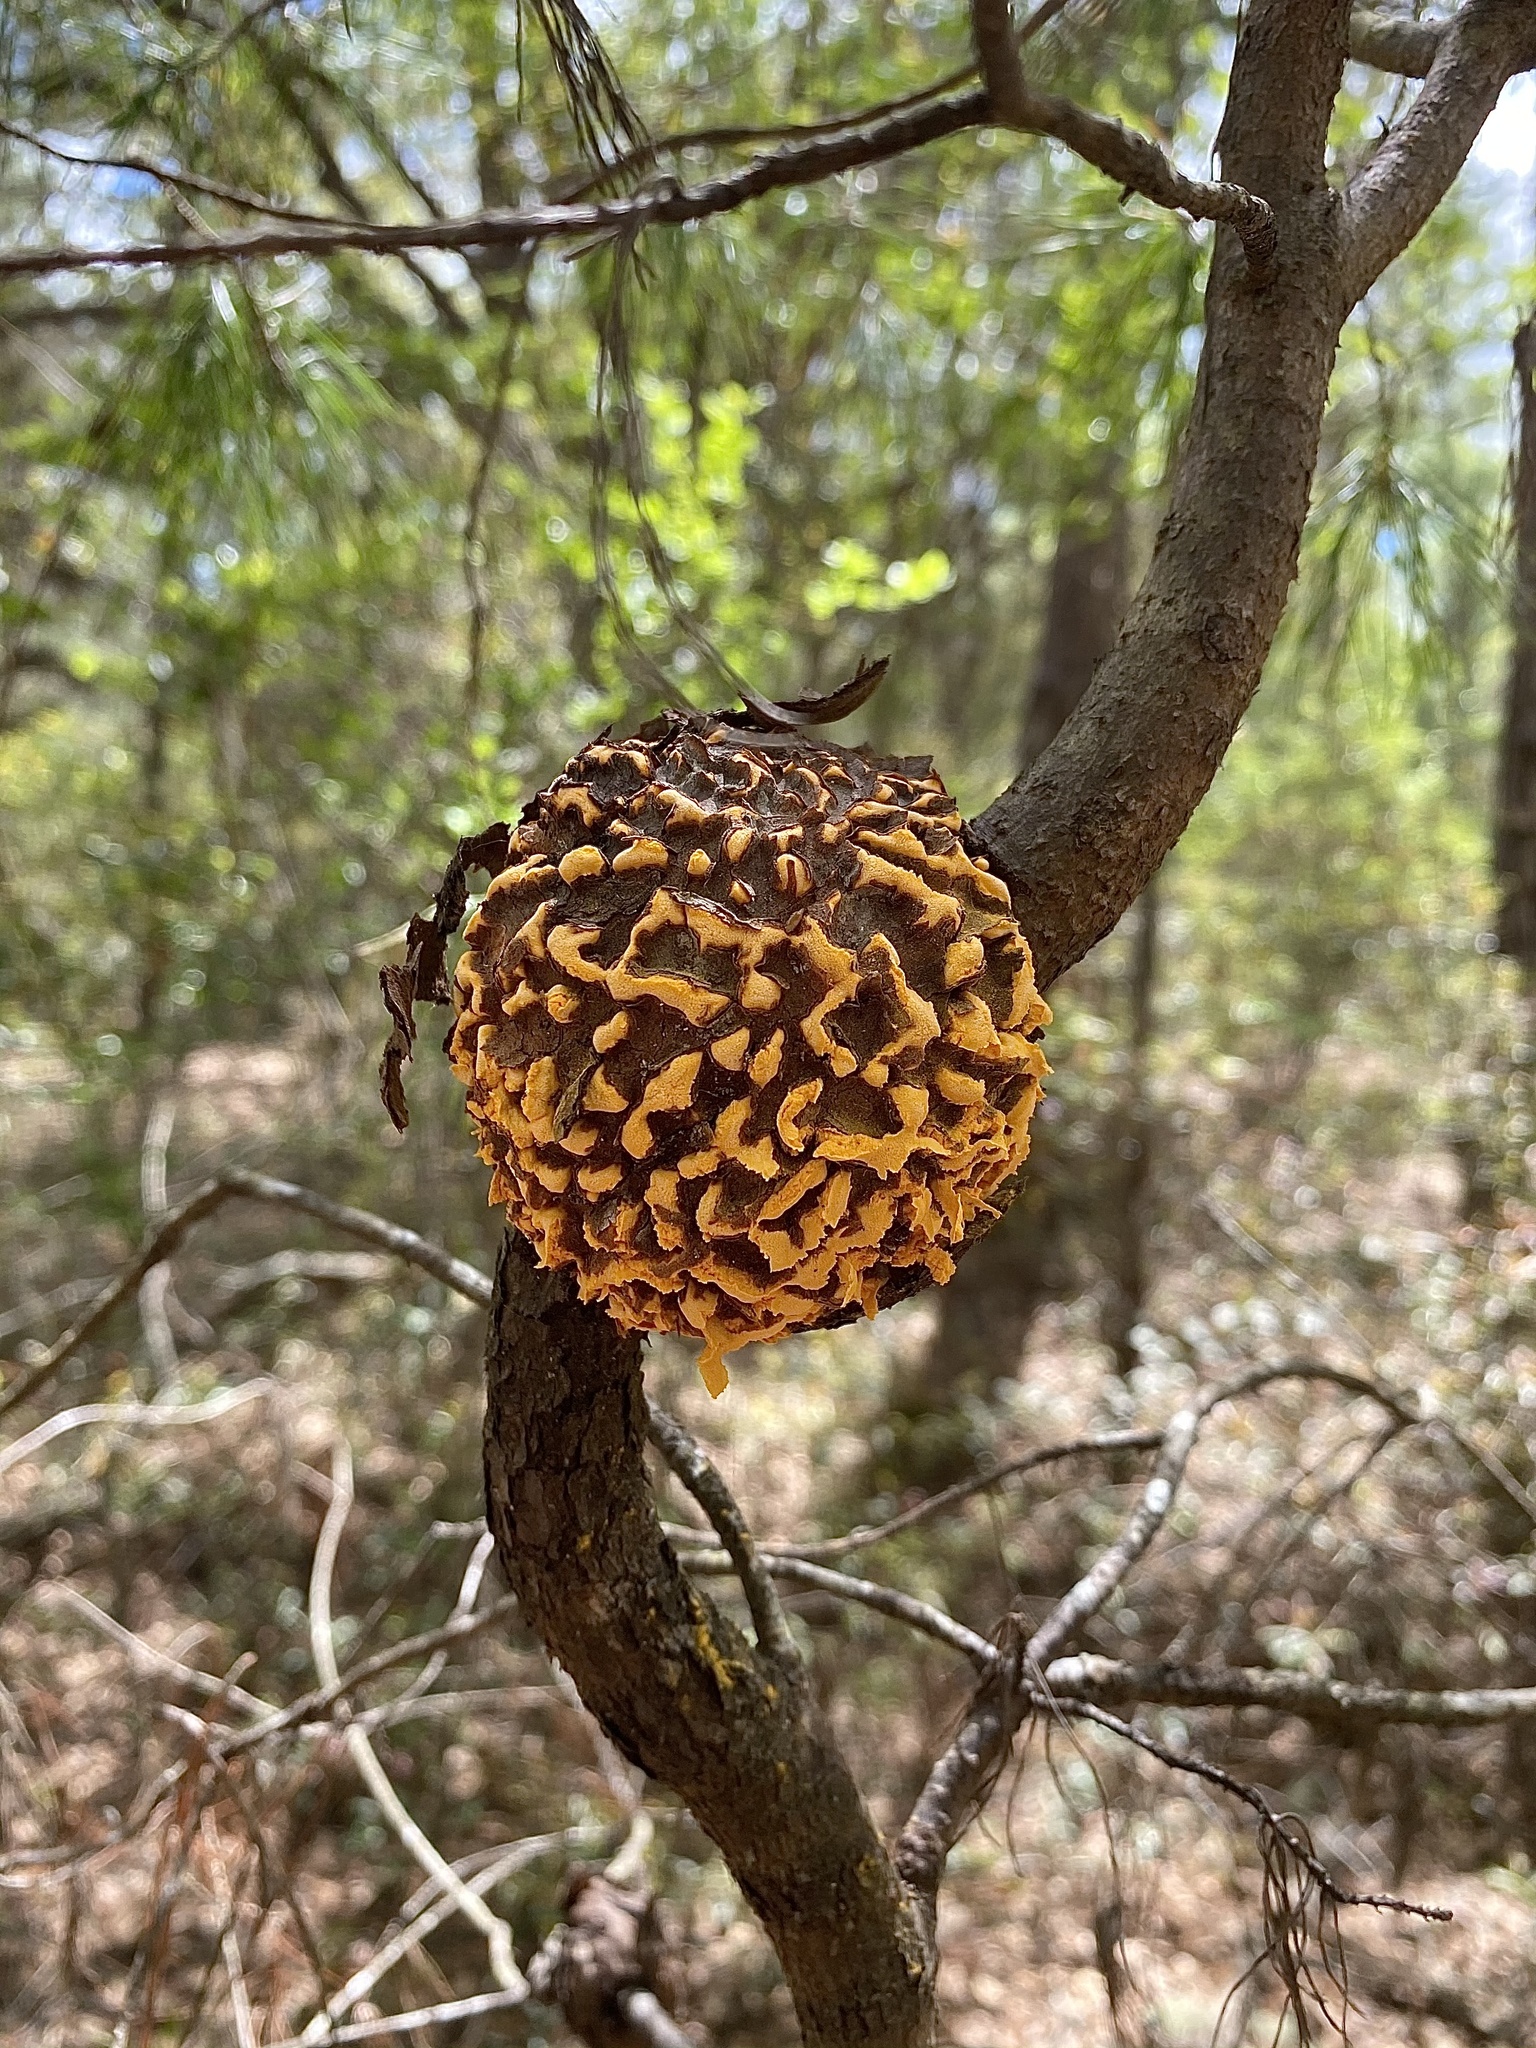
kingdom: Fungi
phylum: Basidiomycota
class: Pucciniomycetes
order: Pucciniales
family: Cronartiaceae
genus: Cronartium
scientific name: Cronartium quercuum
